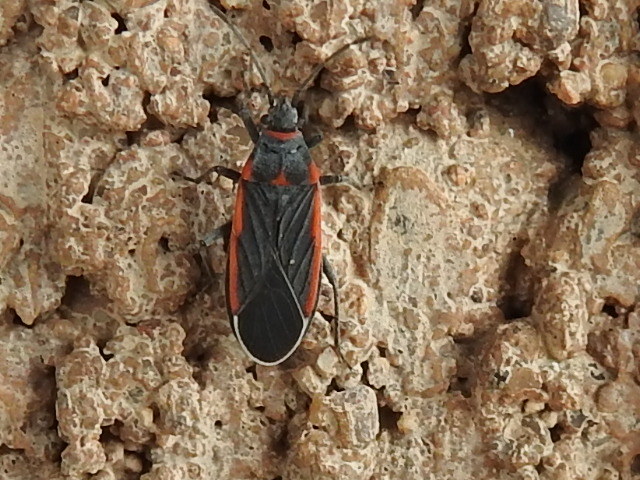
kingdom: Animalia
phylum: Arthropoda
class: Insecta
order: Hemiptera
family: Lygaeidae
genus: Melacoryphus
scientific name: Melacoryphus lateralis
